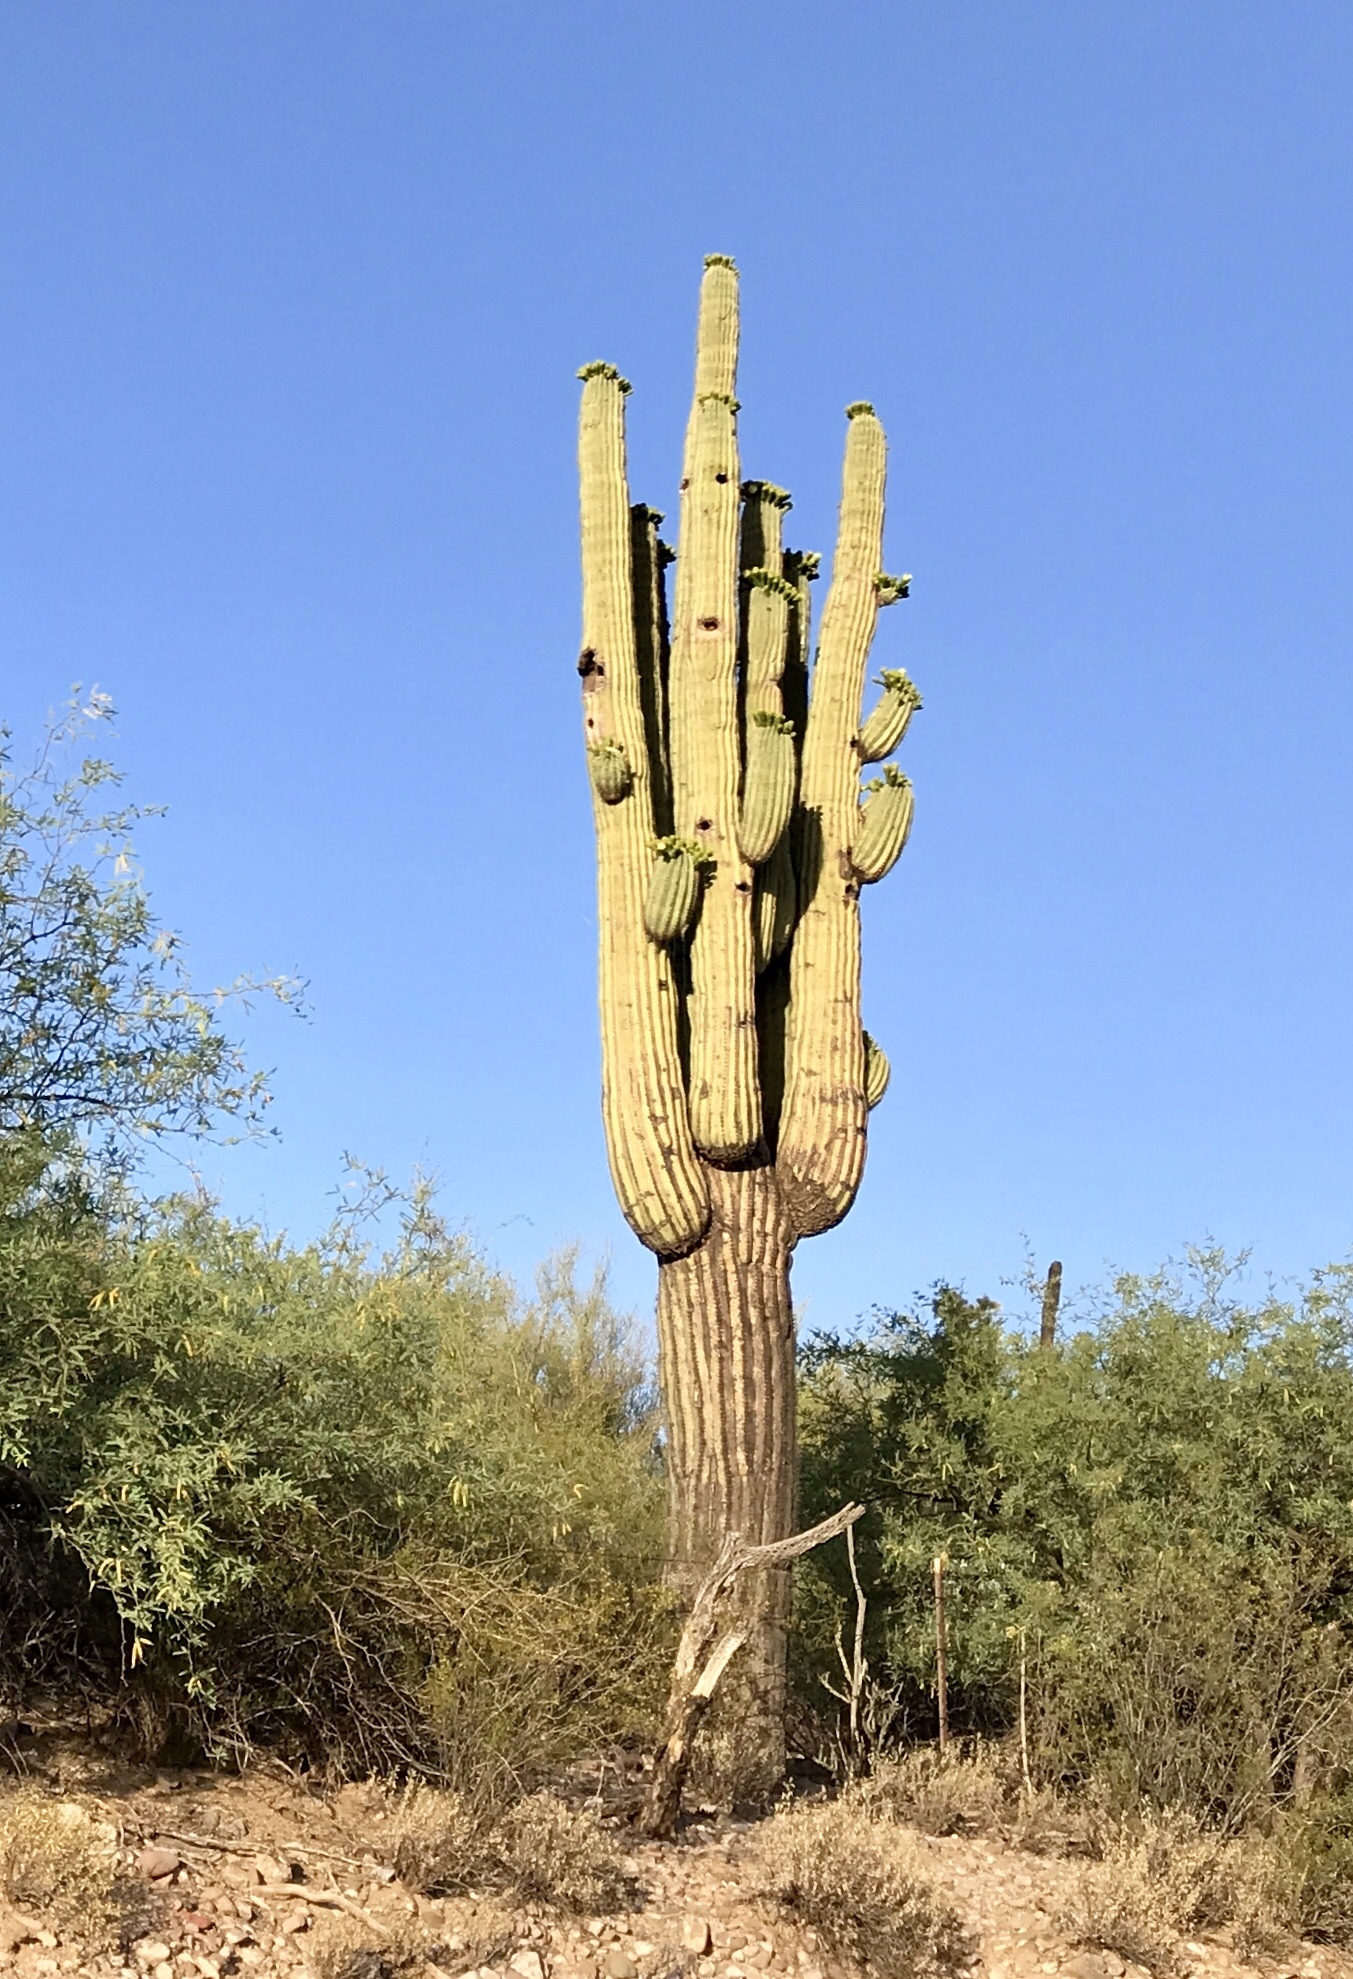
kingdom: Plantae
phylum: Tracheophyta
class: Magnoliopsida
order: Caryophyllales
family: Cactaceae
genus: Carnegiea
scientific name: Carnegiea gigantea
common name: Saguaro
